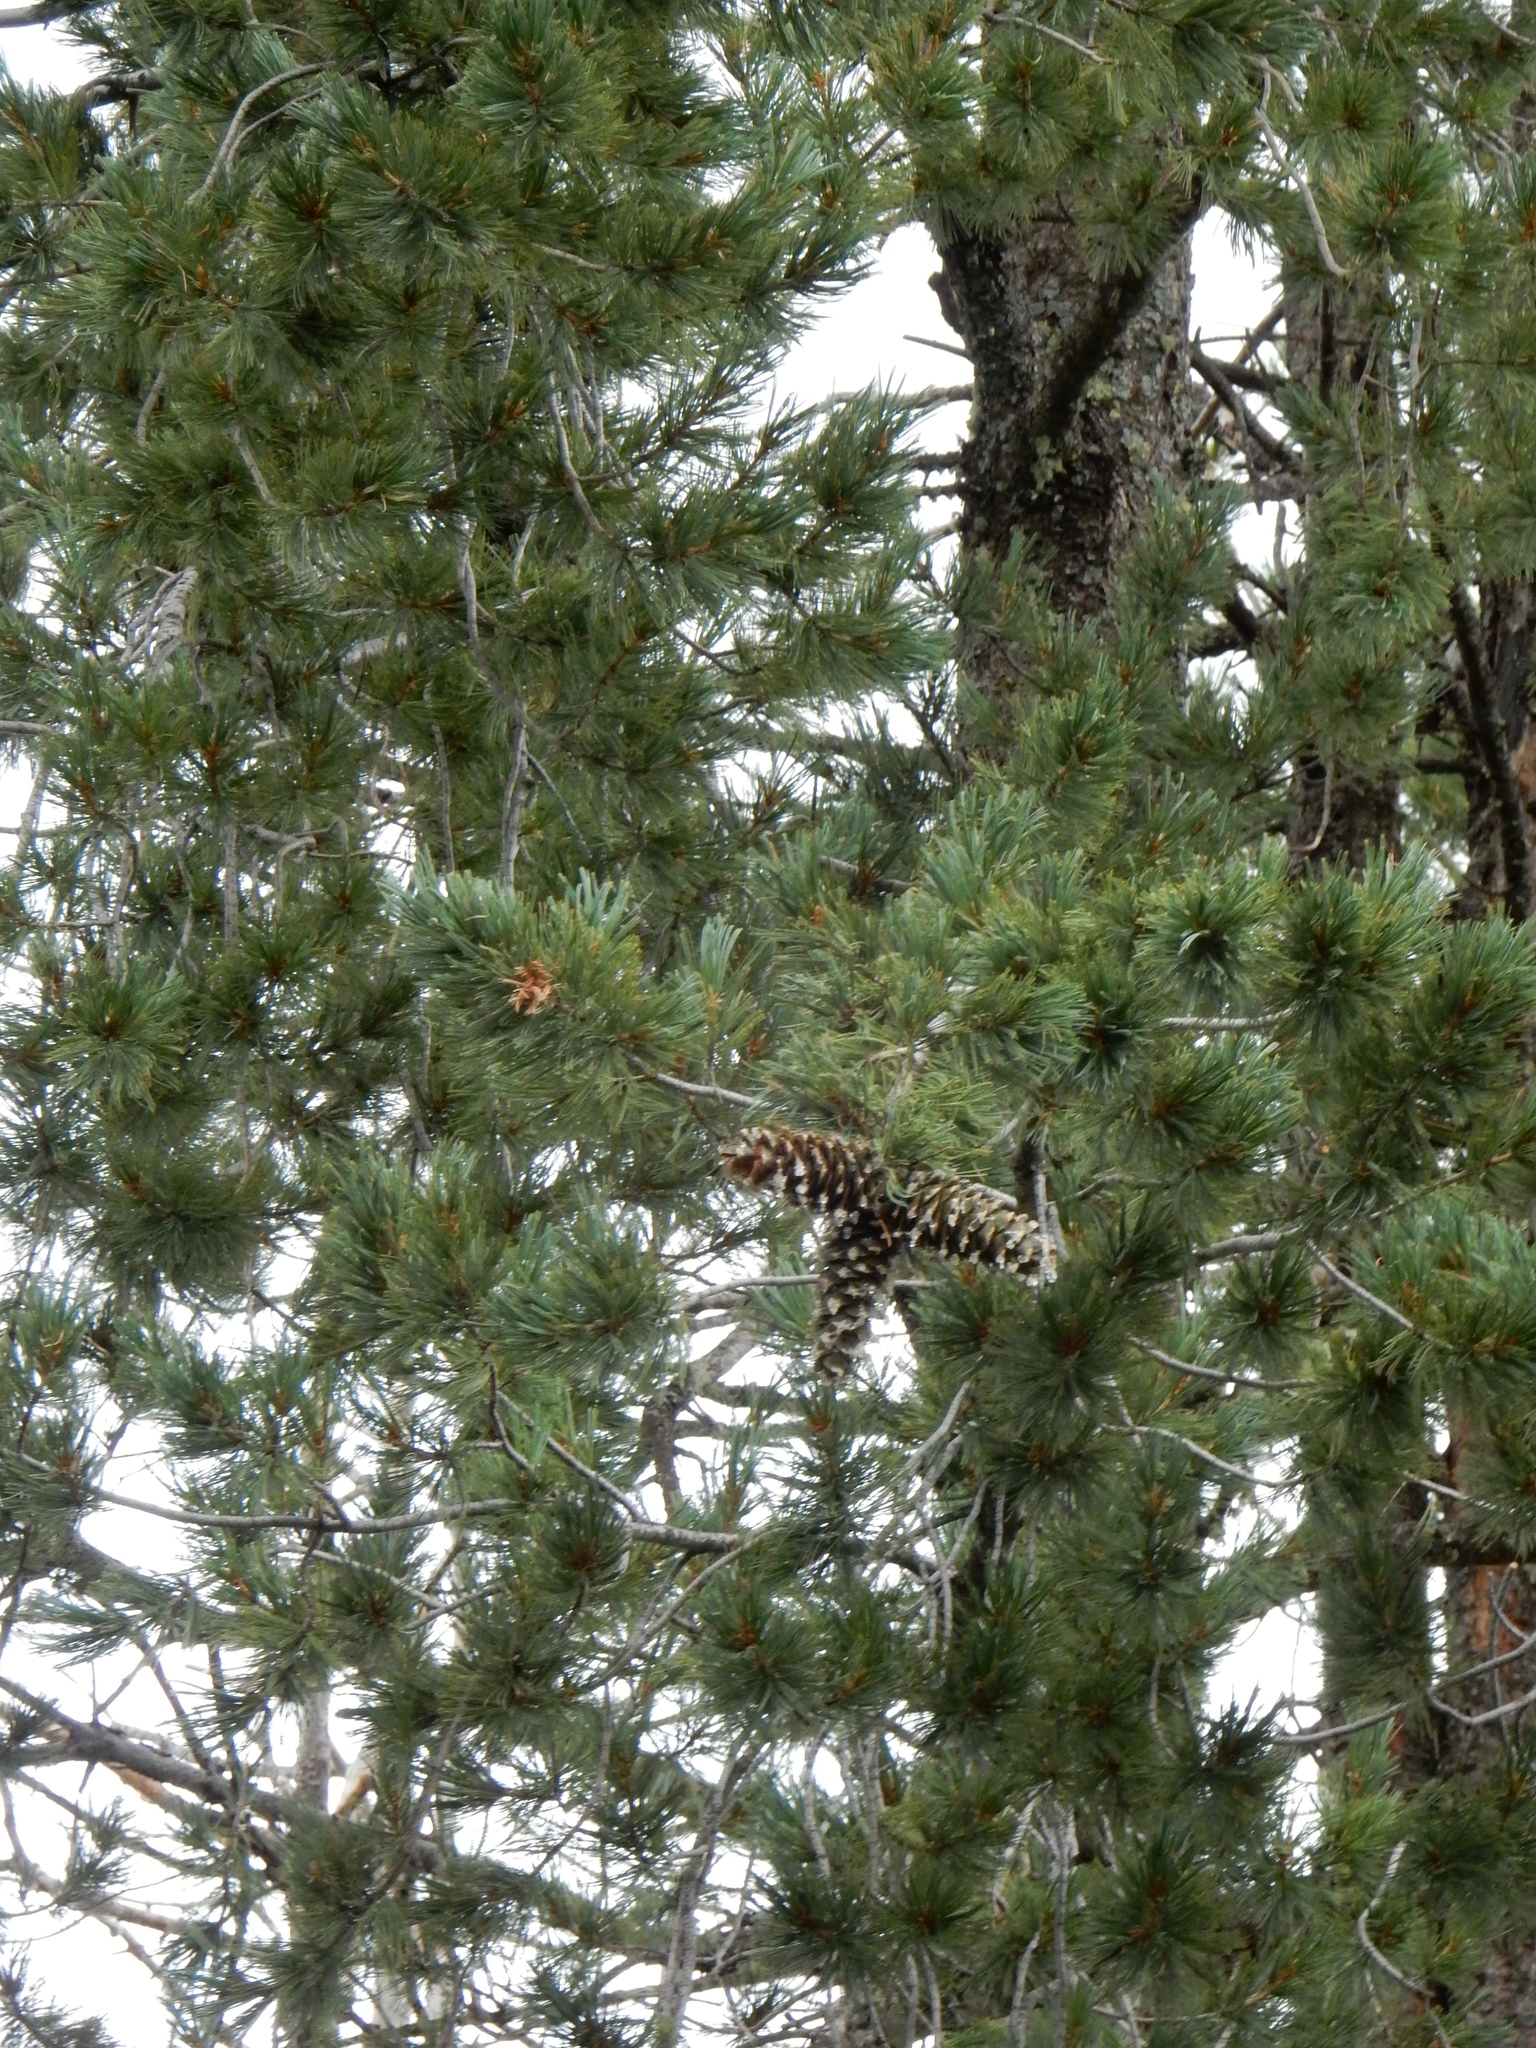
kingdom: Plantae
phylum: Tracheophyta
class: Pinopsida
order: Pinales
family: Pinaceae
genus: Pinus
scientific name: Pinus strobiformis
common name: Southwestern white pine
